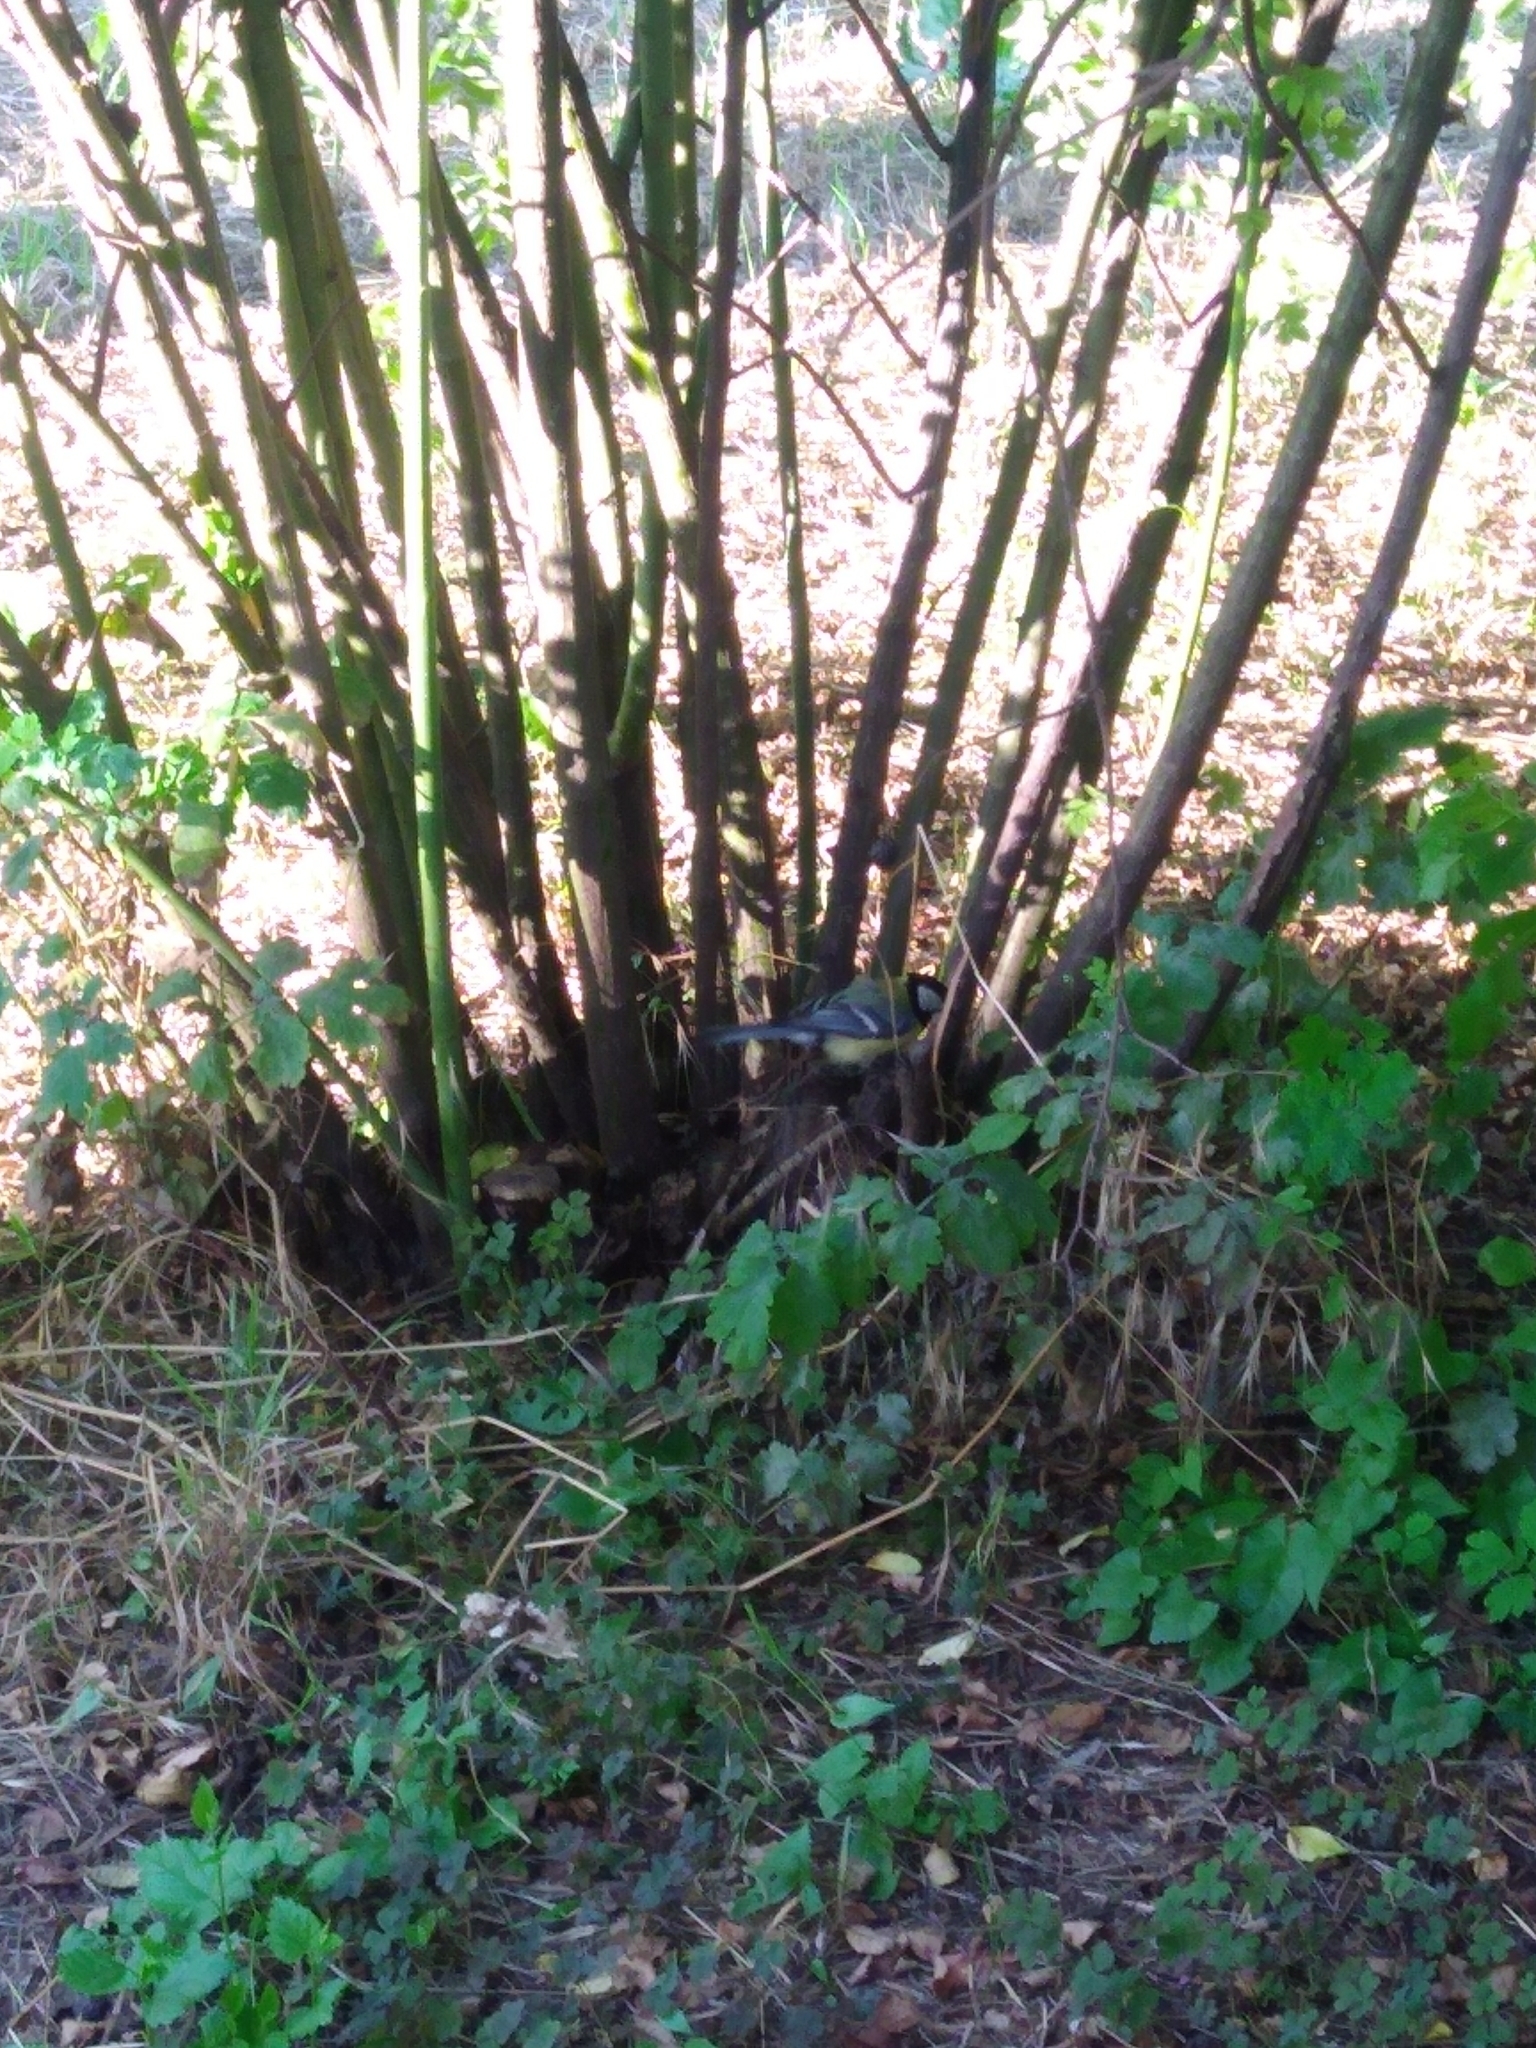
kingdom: Animalia
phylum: Chordata
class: Aves
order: Passeriformes
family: Paridae
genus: Parus
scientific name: Parus major
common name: Great tit
